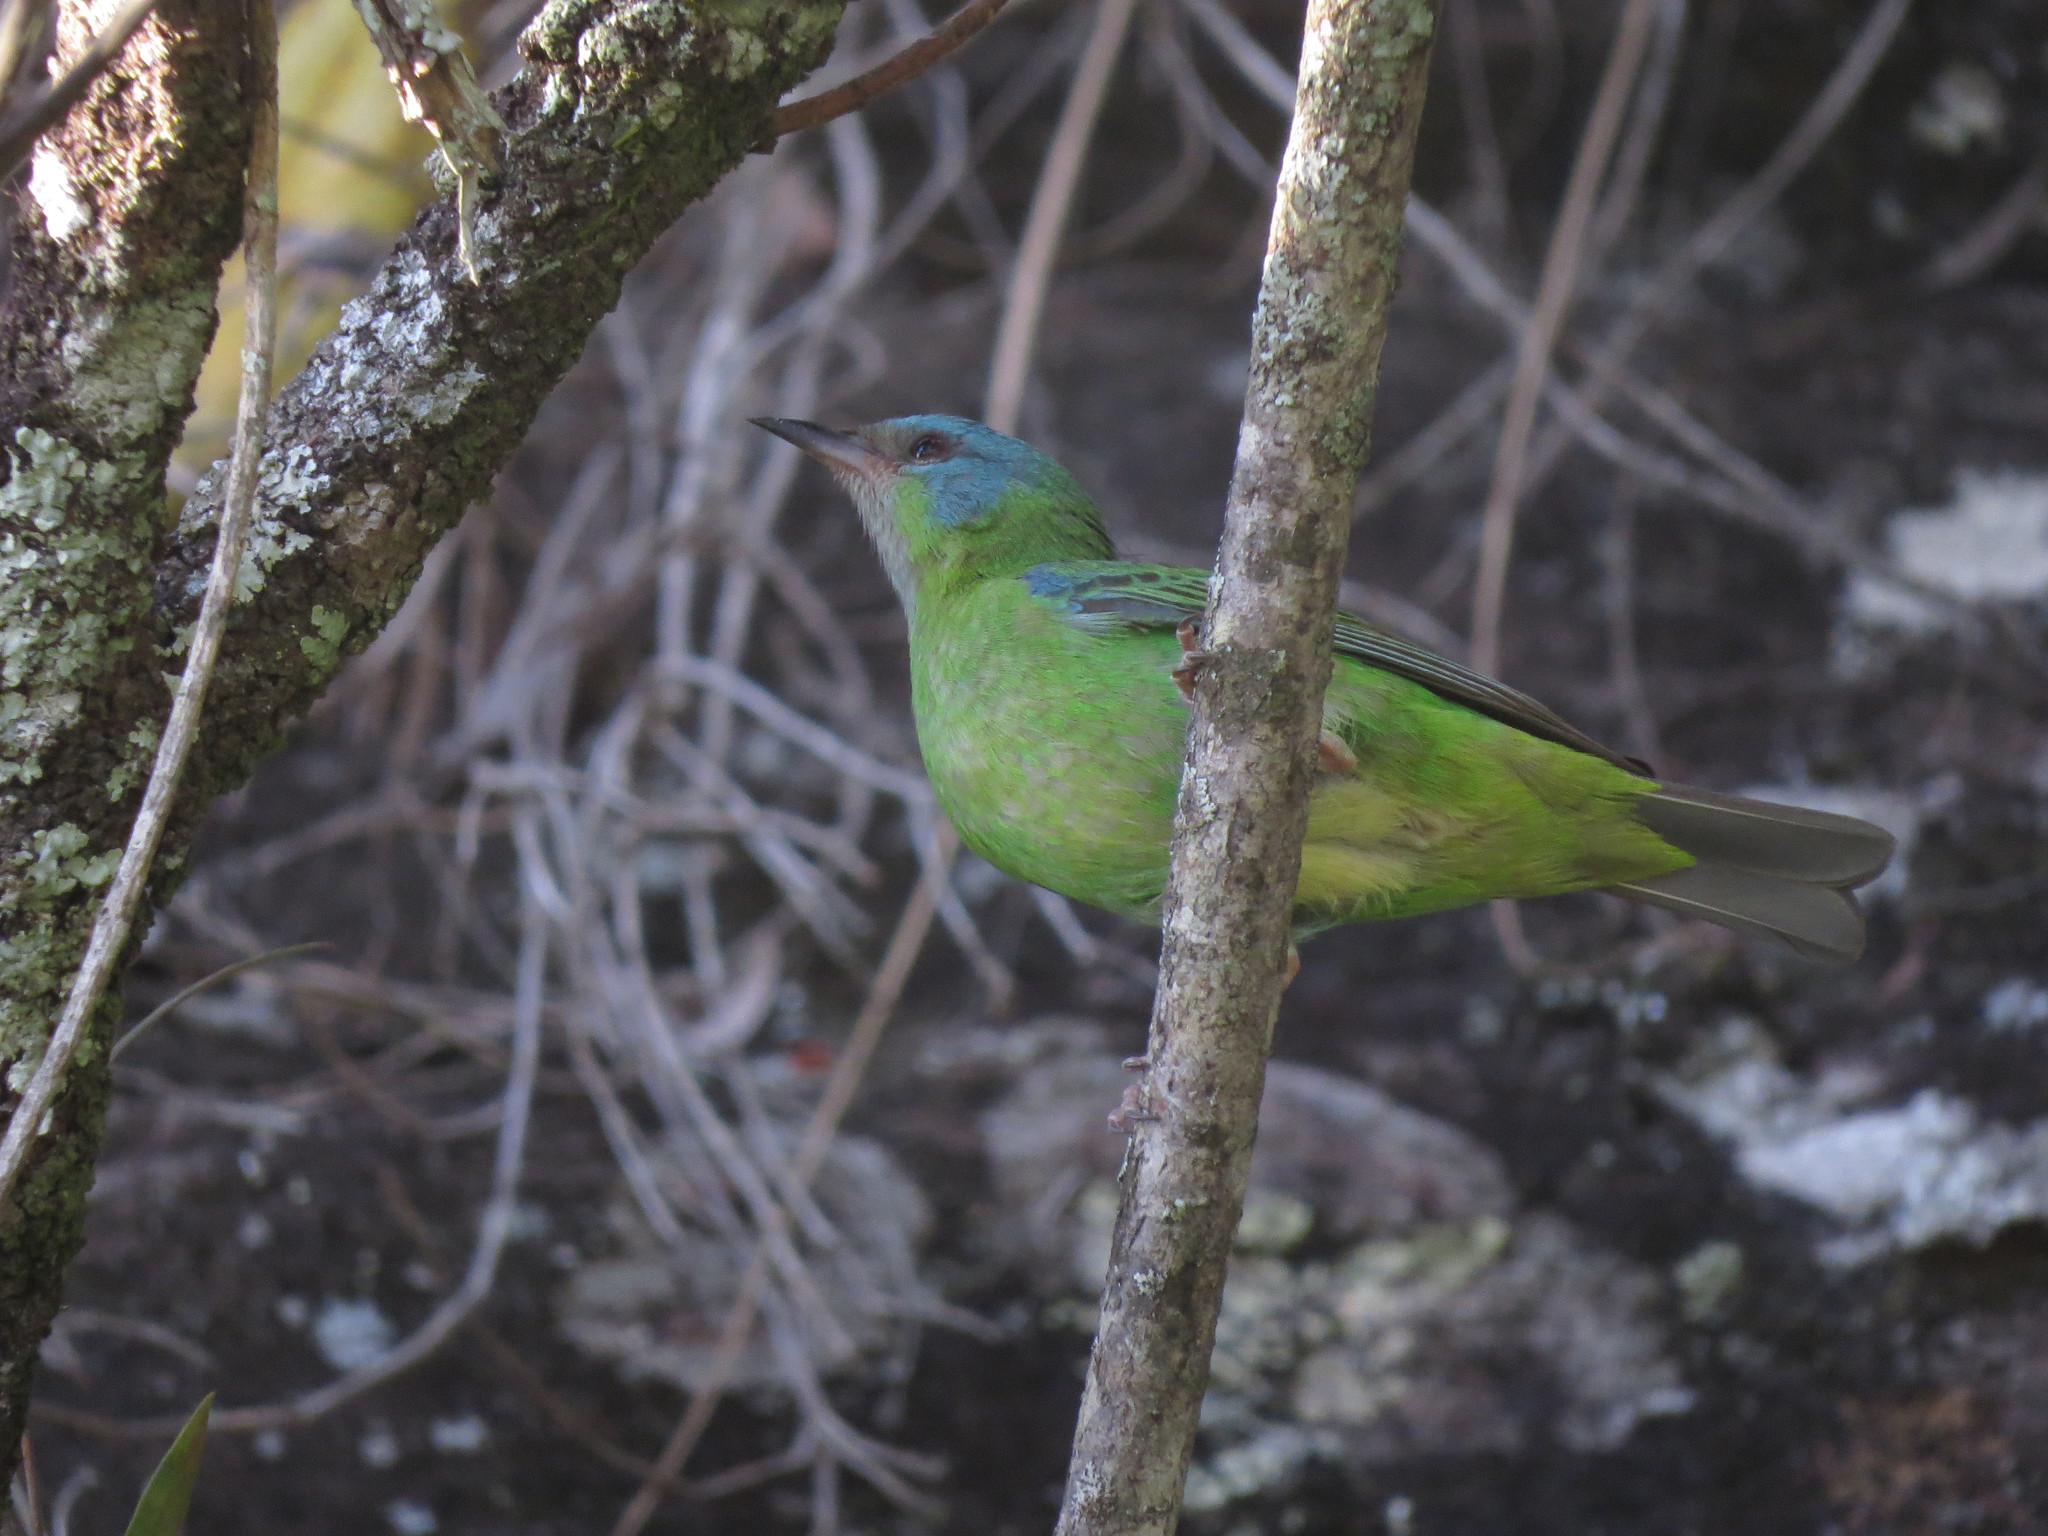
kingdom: Animalia
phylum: Chordata
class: Aves
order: Passeriformes
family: Thraupidae
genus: Dacnis
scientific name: Dacnis cayana
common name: Blue dacnis
